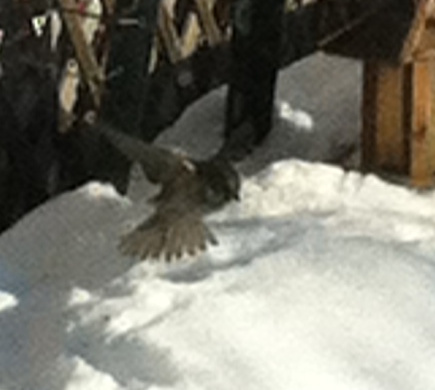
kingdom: Animalia
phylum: Chordata
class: Aves
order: Passeriformes
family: Passeridae
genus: Passer
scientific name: Passer domesticus
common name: House sparrow
